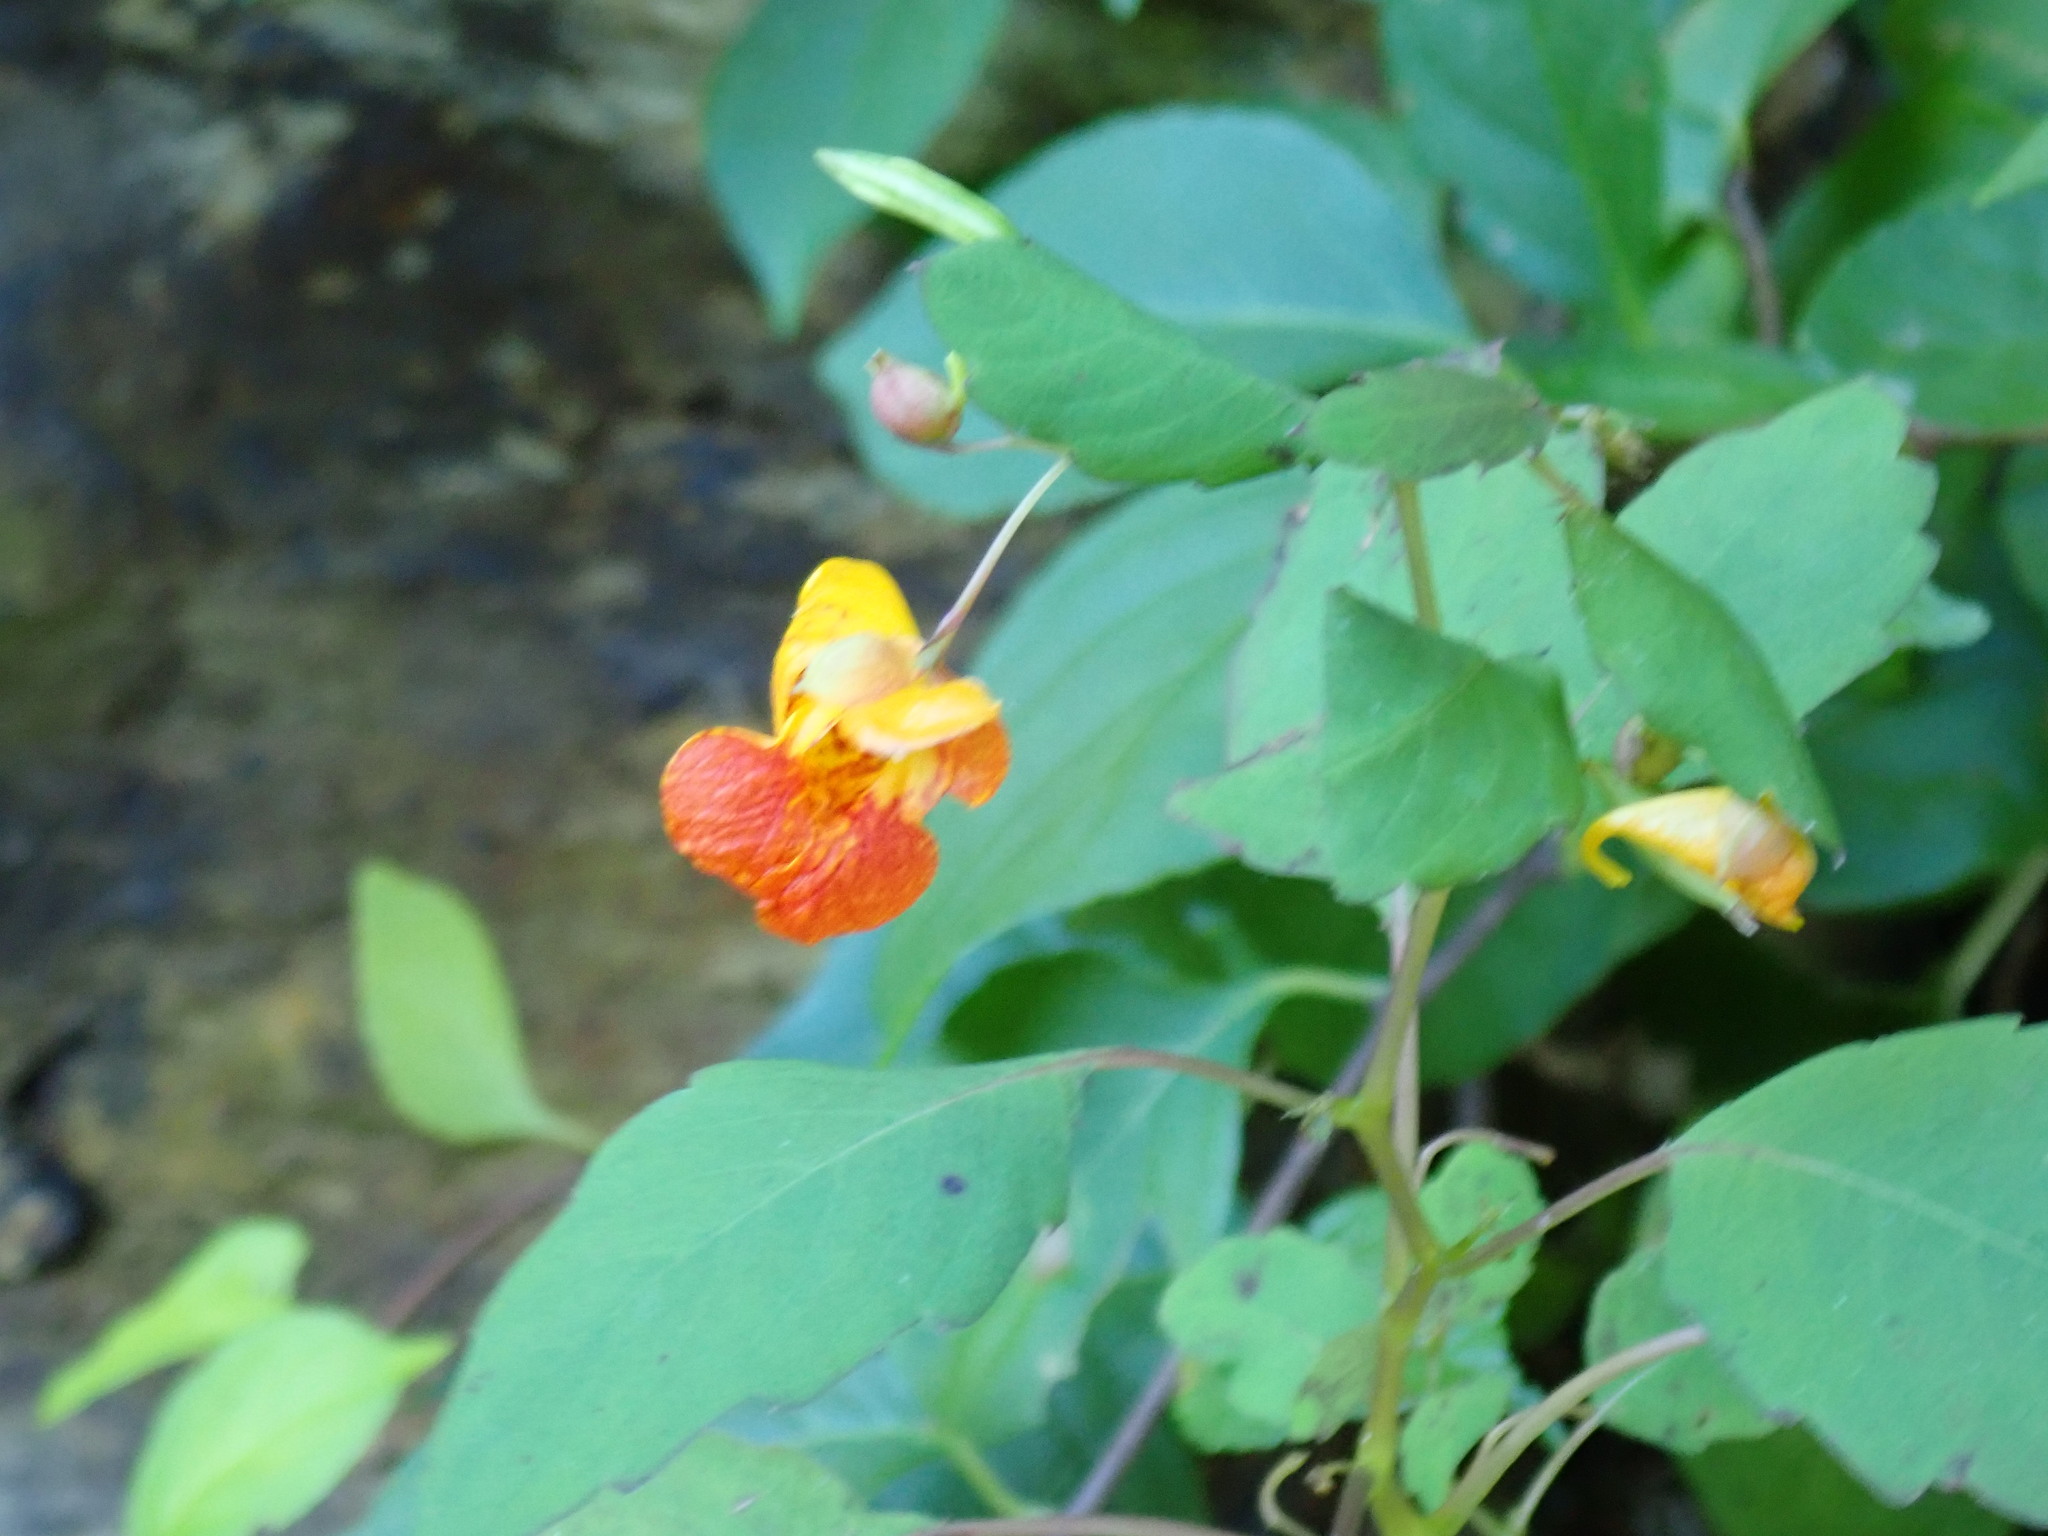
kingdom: Plantae
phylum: Tracheophyta
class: Magnoliopsida
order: Ericales
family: Balsaminaceae
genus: Impatiens
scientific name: Impatiens capensis
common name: Orange balsam
